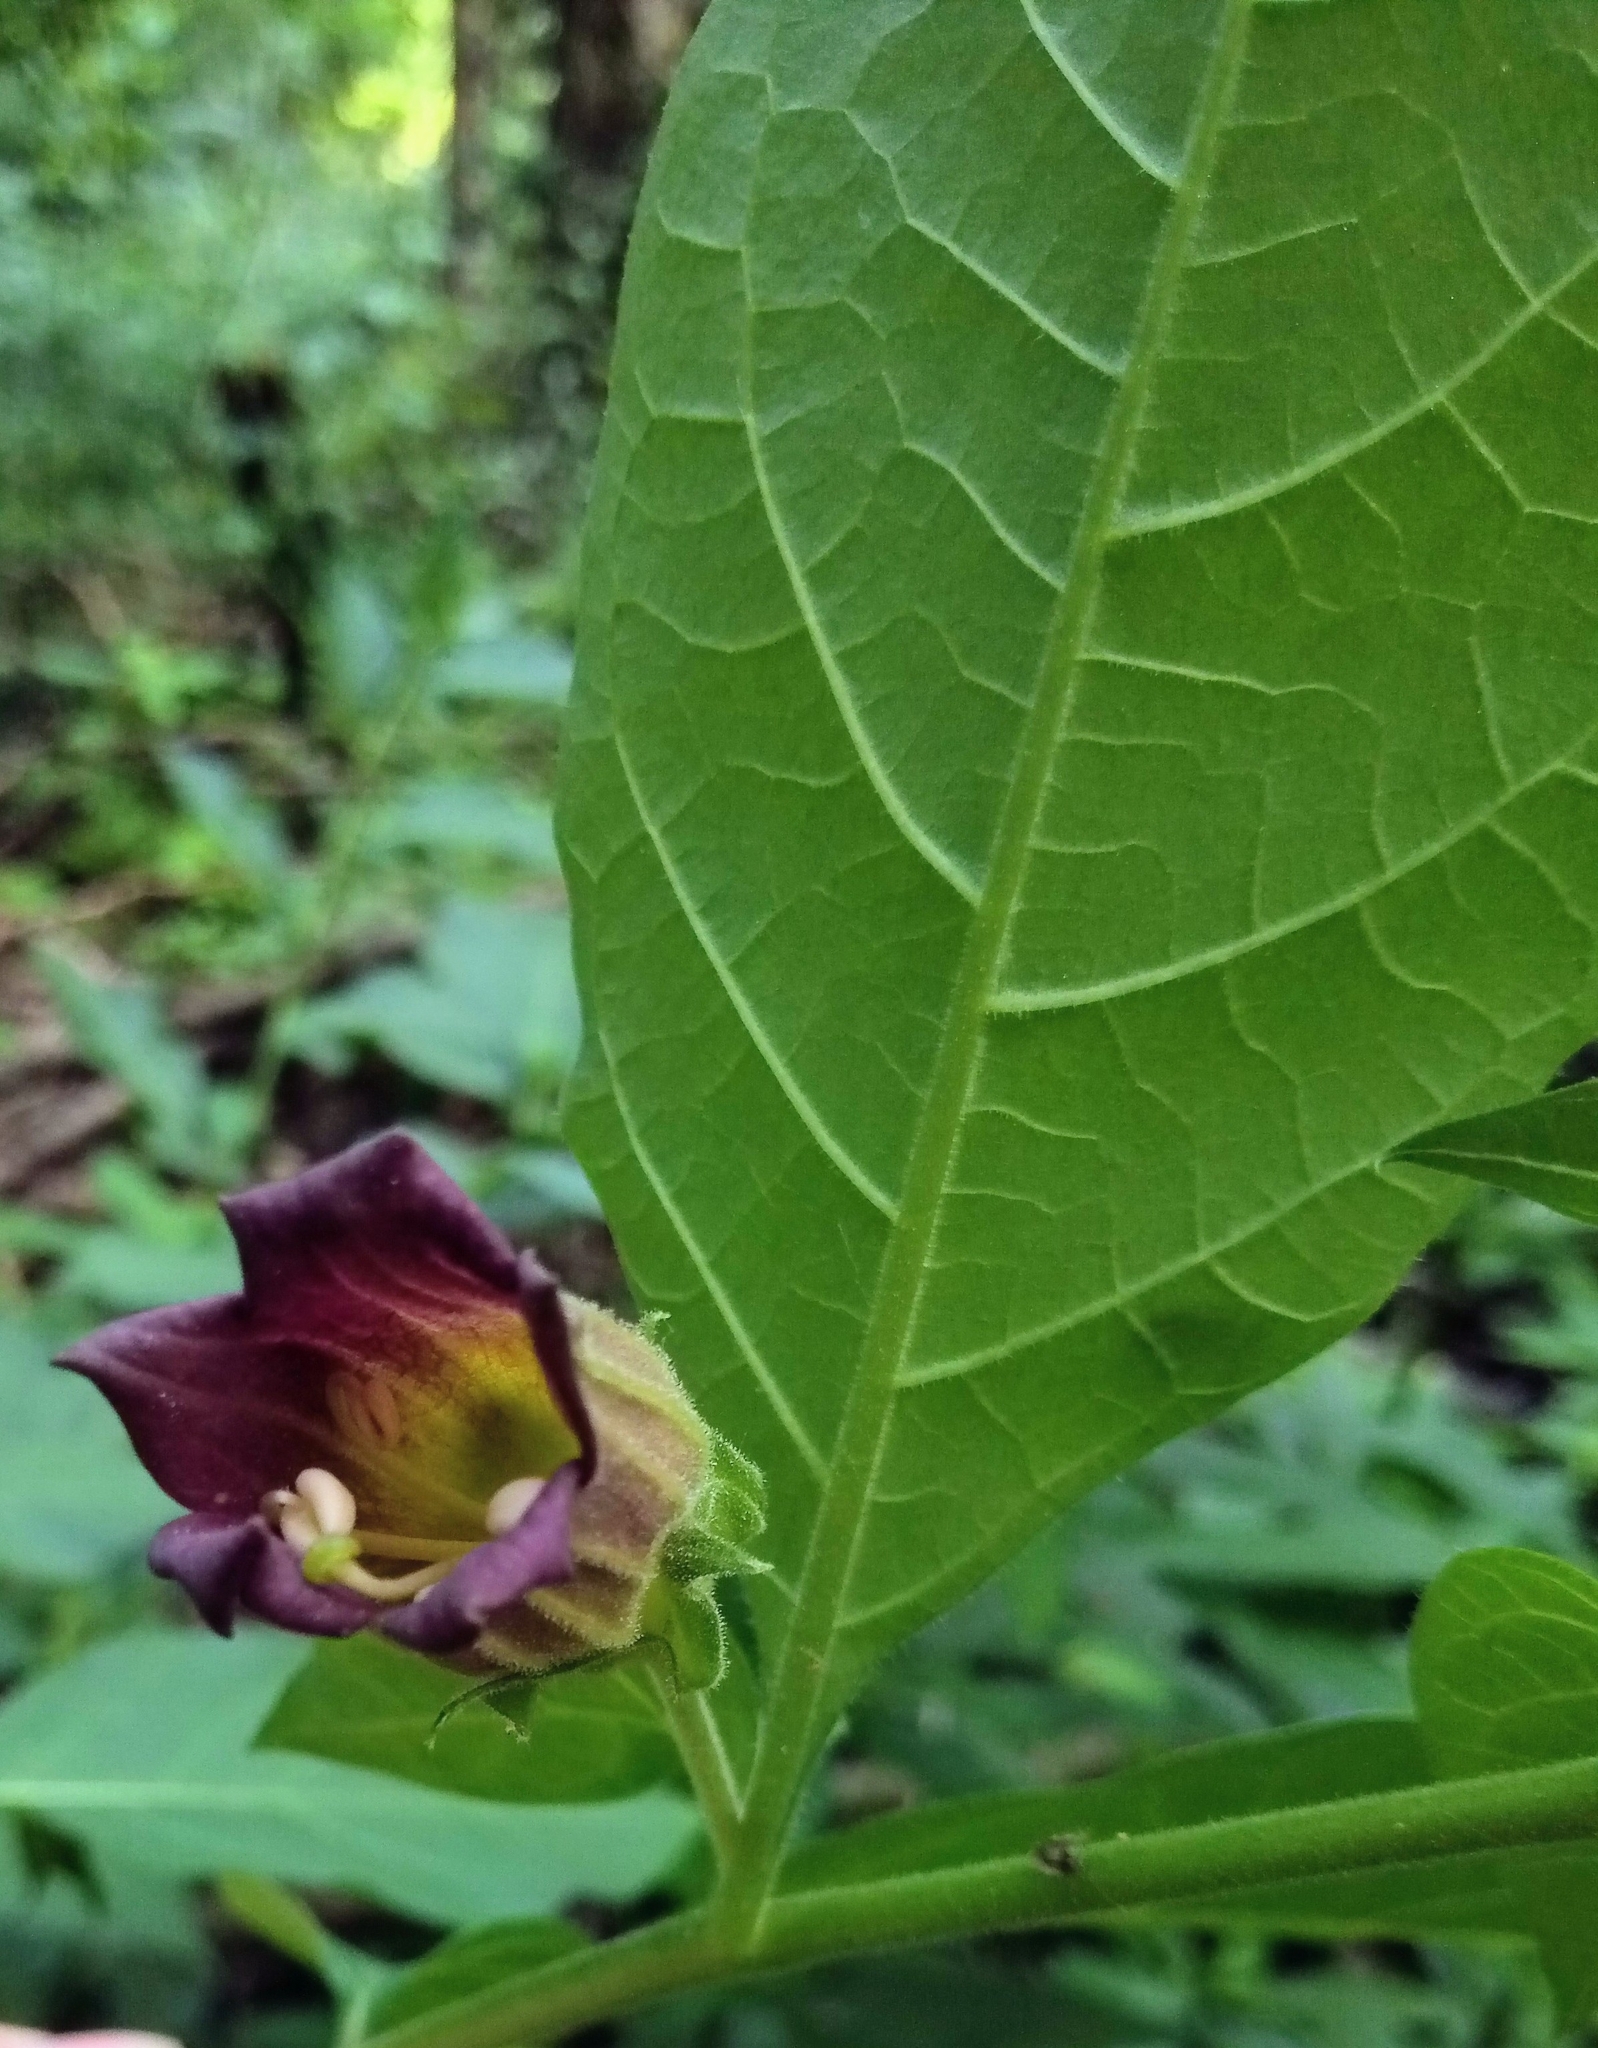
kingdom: Plantae
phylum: Tracheophyta
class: Magnoliopsida
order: Solanales
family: Solanaceae
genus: Atropa
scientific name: Atropa belladonna
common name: Deadly nightshade
